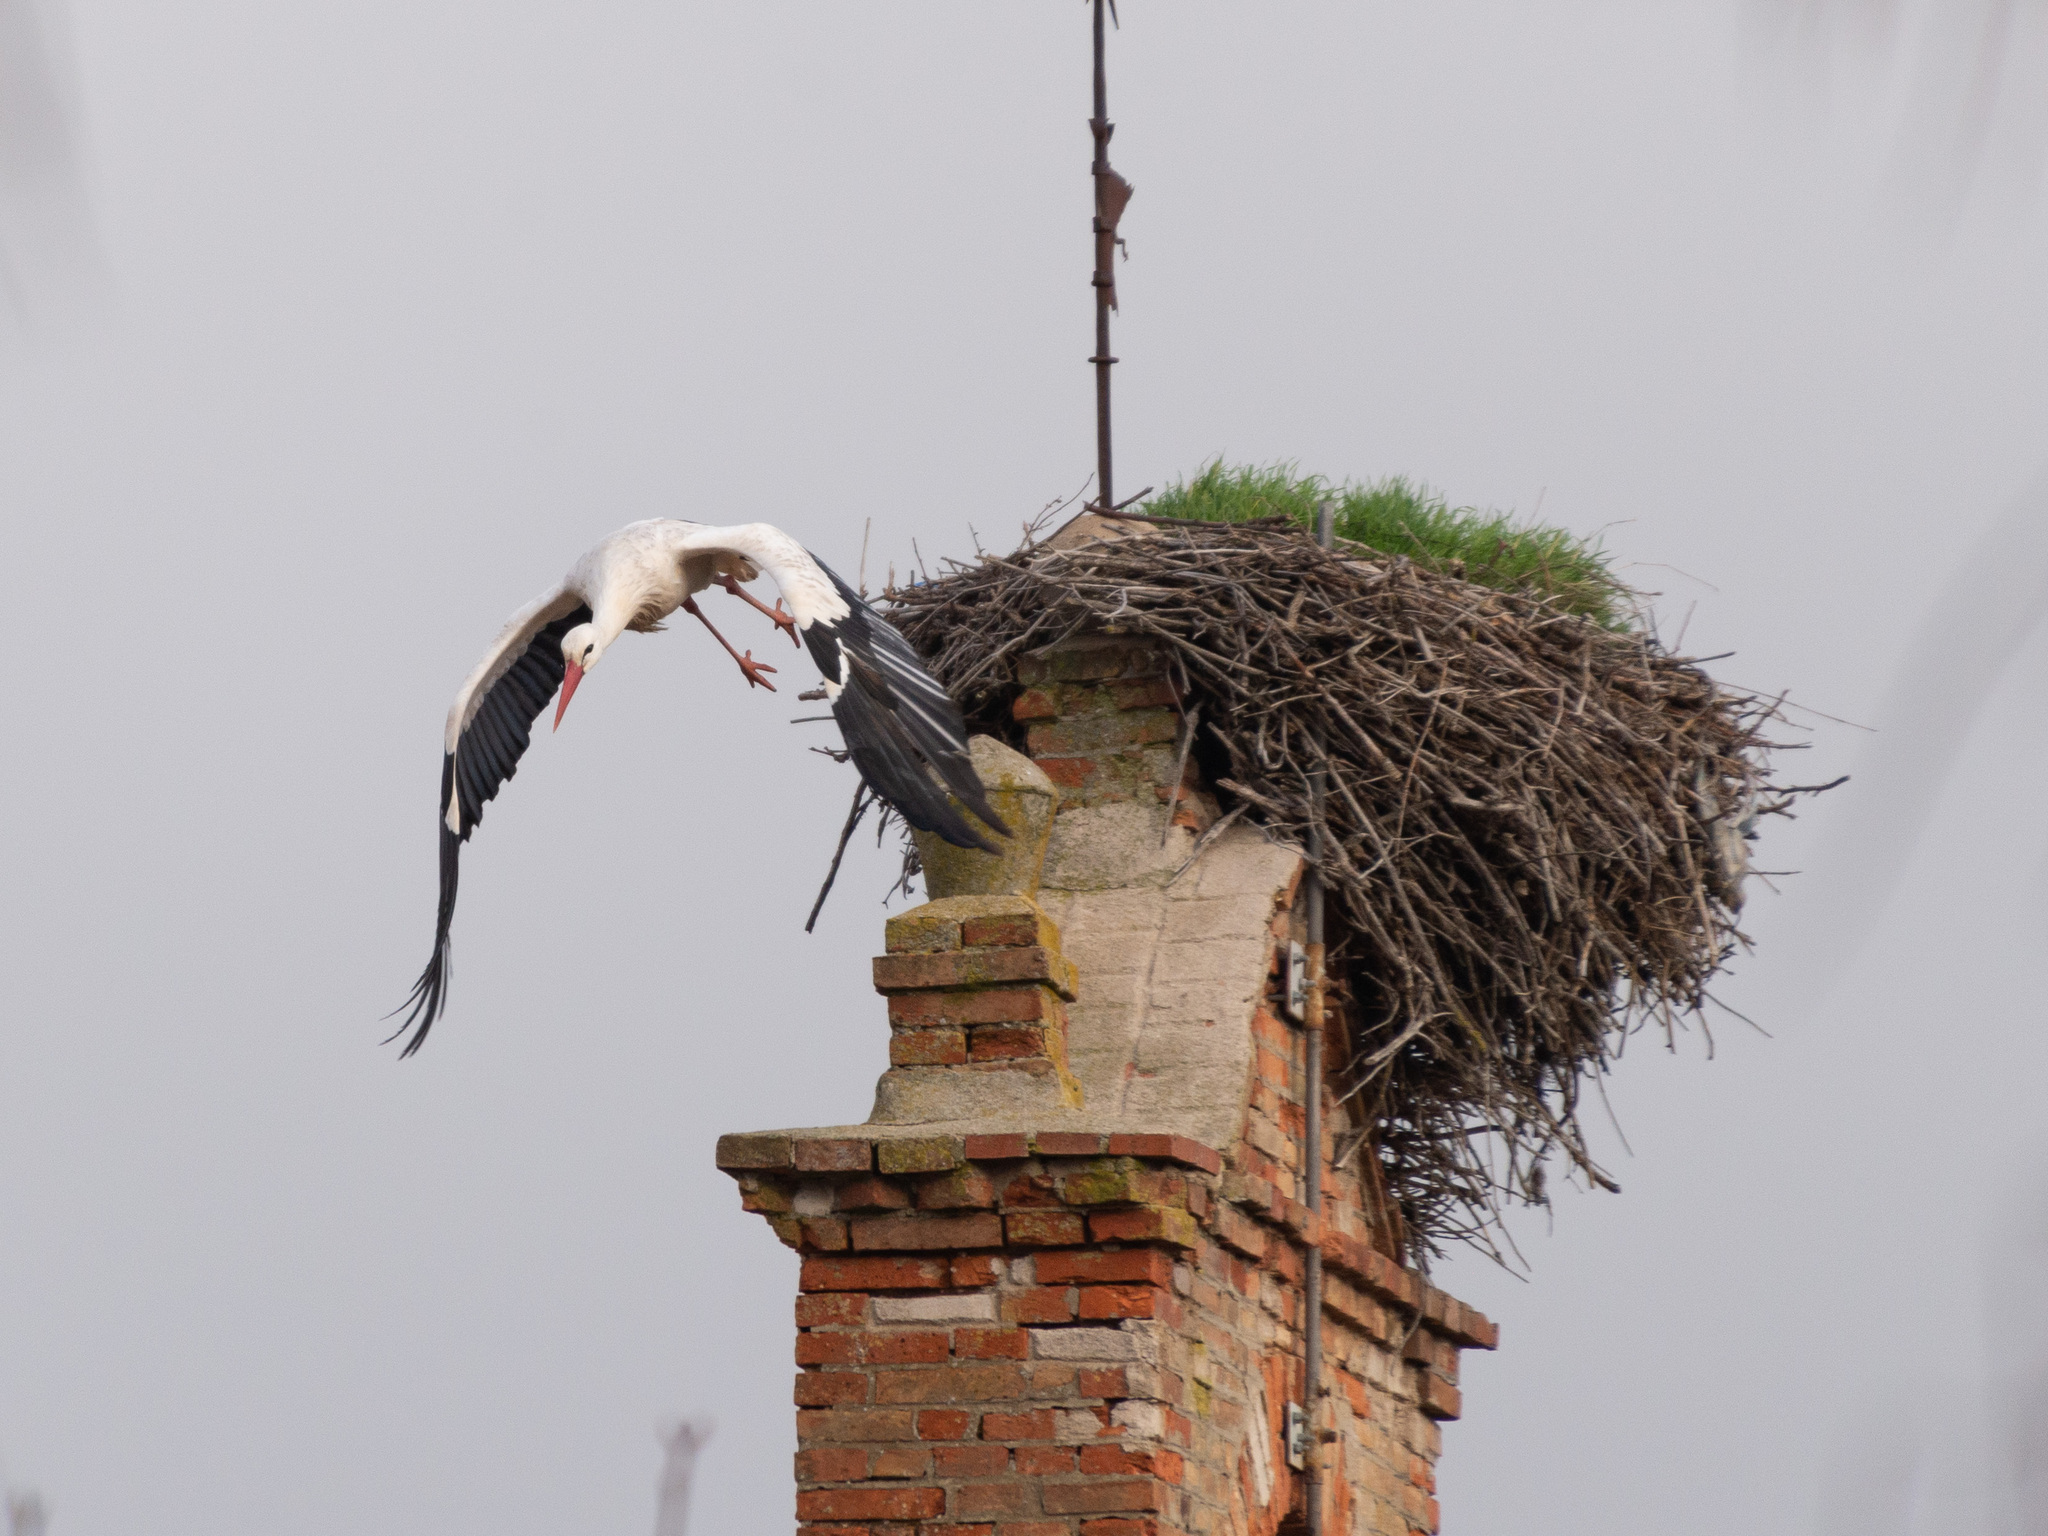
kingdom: Animalia
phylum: Chordata
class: Aves
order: Ciconiiformes
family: Ciconiidae
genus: Ciconia
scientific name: Ciconia ciconia
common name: White stork
